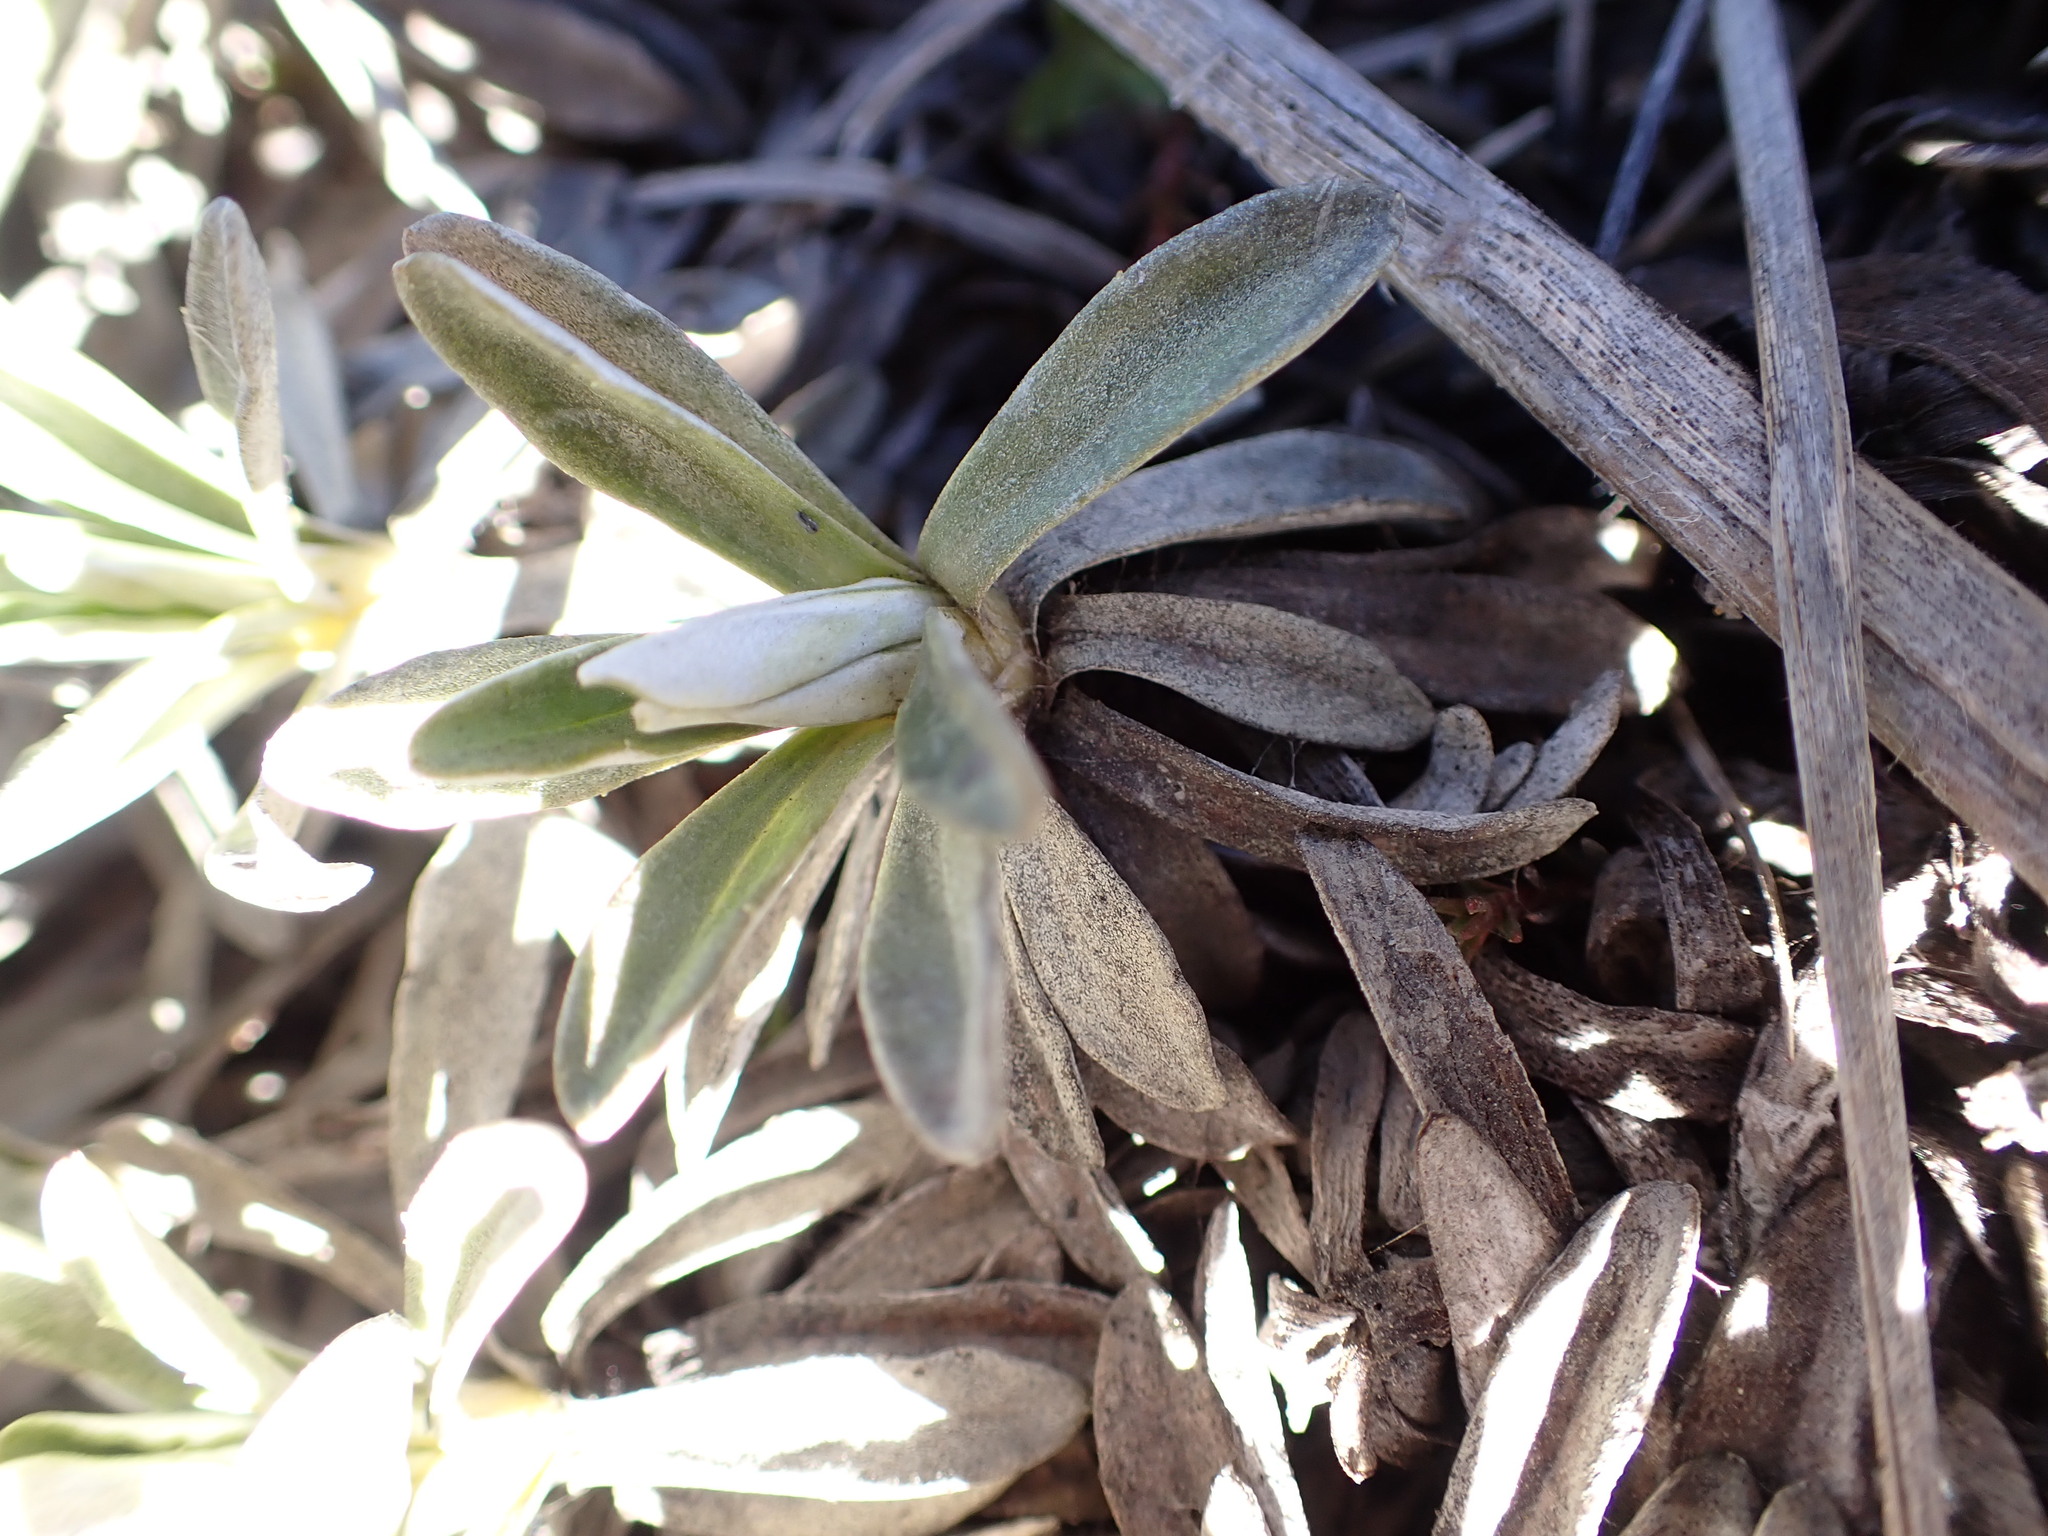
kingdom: Plantae
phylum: Tracheophyta
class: Magnoliopsida
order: Asterales
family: Asteraceae
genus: Celmisia
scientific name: Celmisia angustifolia
